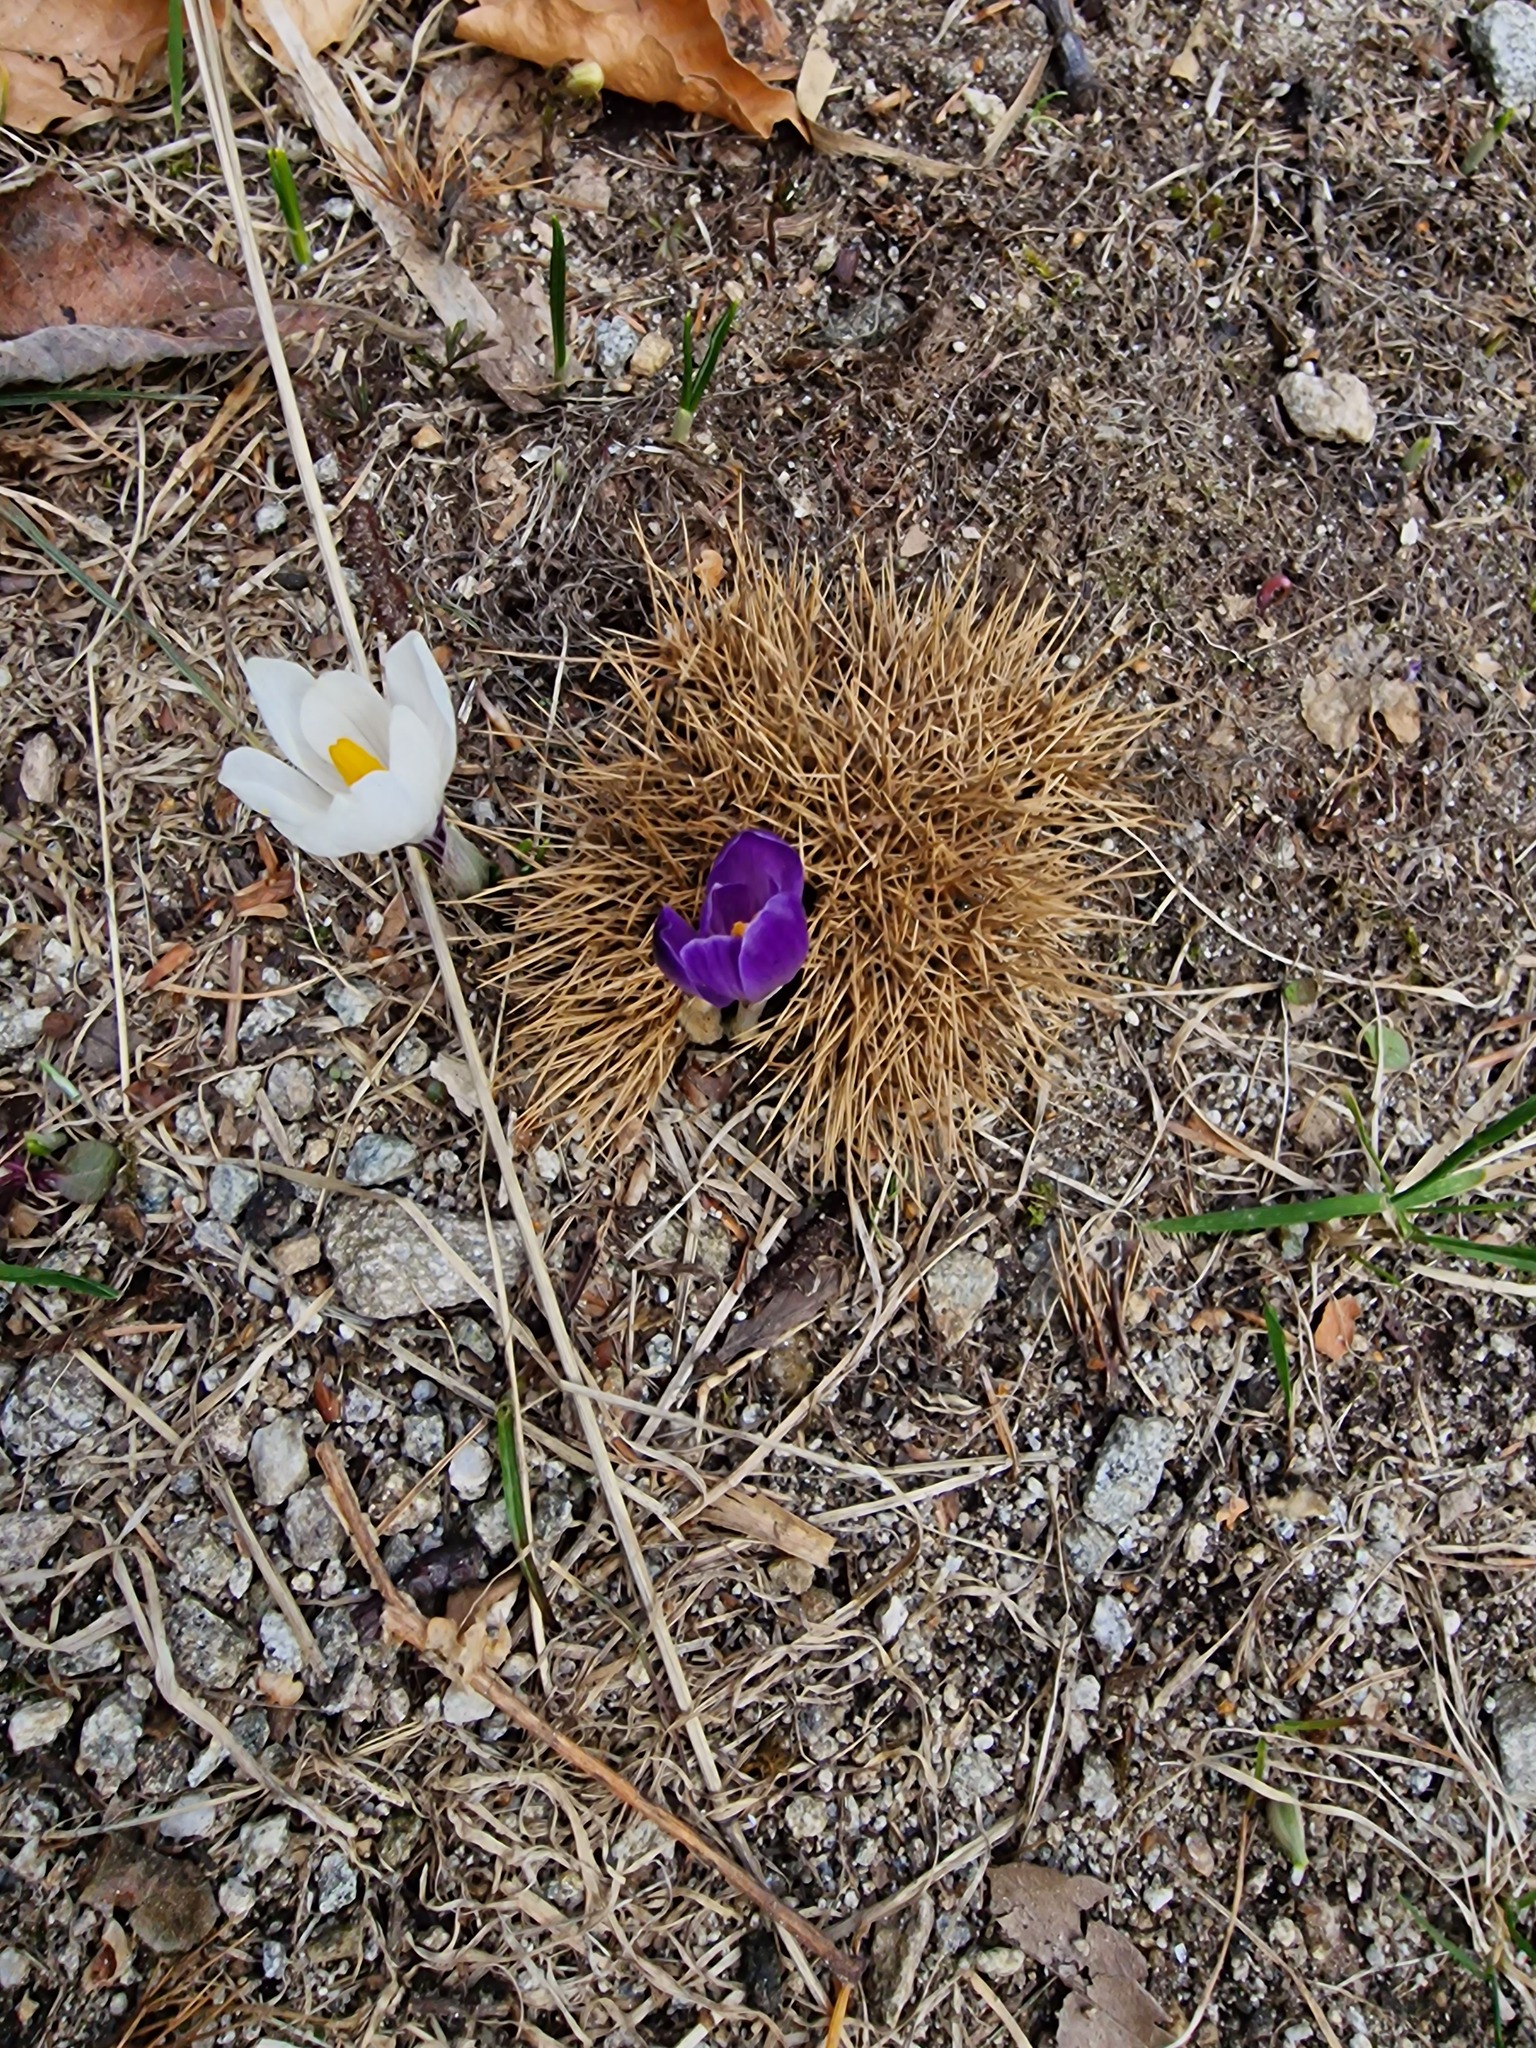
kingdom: Plantae
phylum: Tracheophyta
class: Liliopsida
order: Asparagales
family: Iridaceae
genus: Crocus
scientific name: Crocus vernus
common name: Spring crocus
